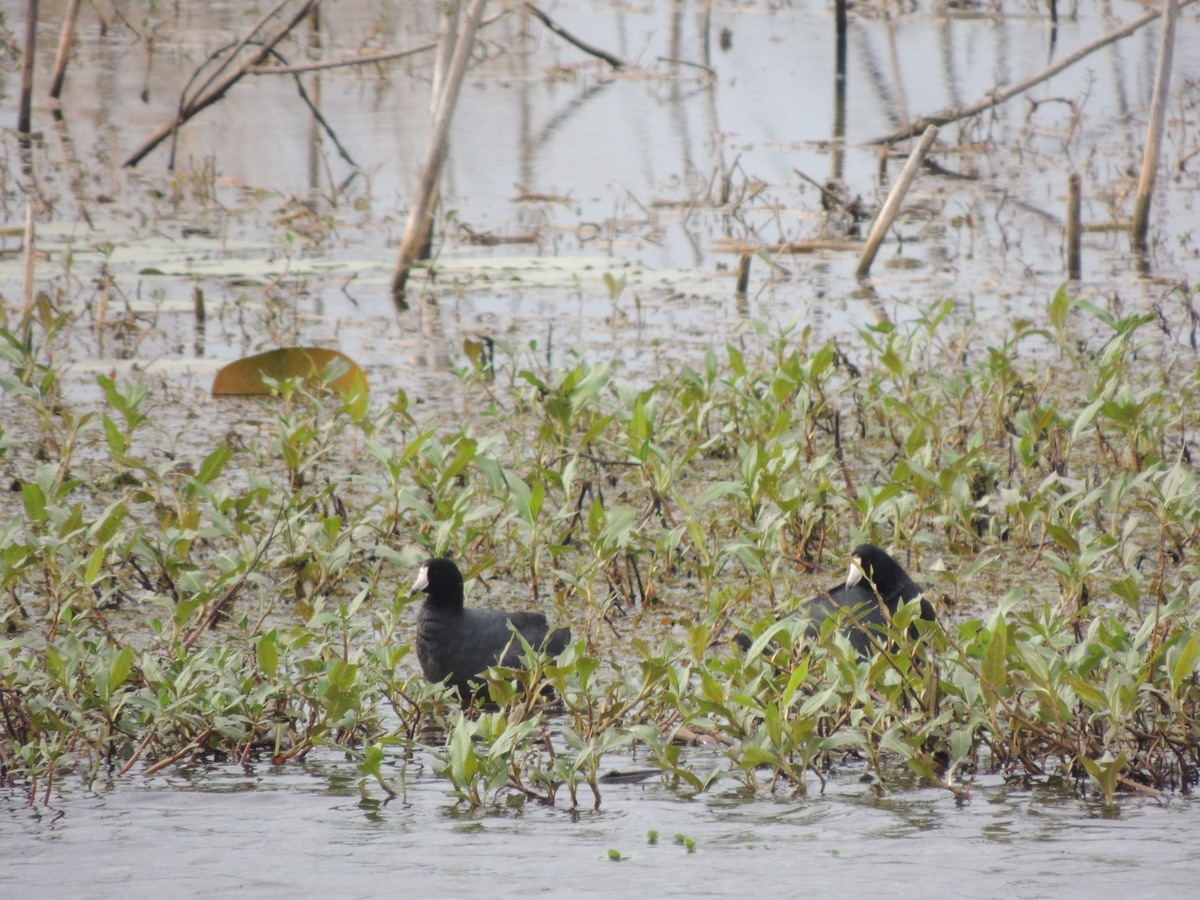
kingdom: Animalia
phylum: Chordata
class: Aves
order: Gruiformes
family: Rallidae
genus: Fulica
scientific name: Fulica americana
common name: American coot
